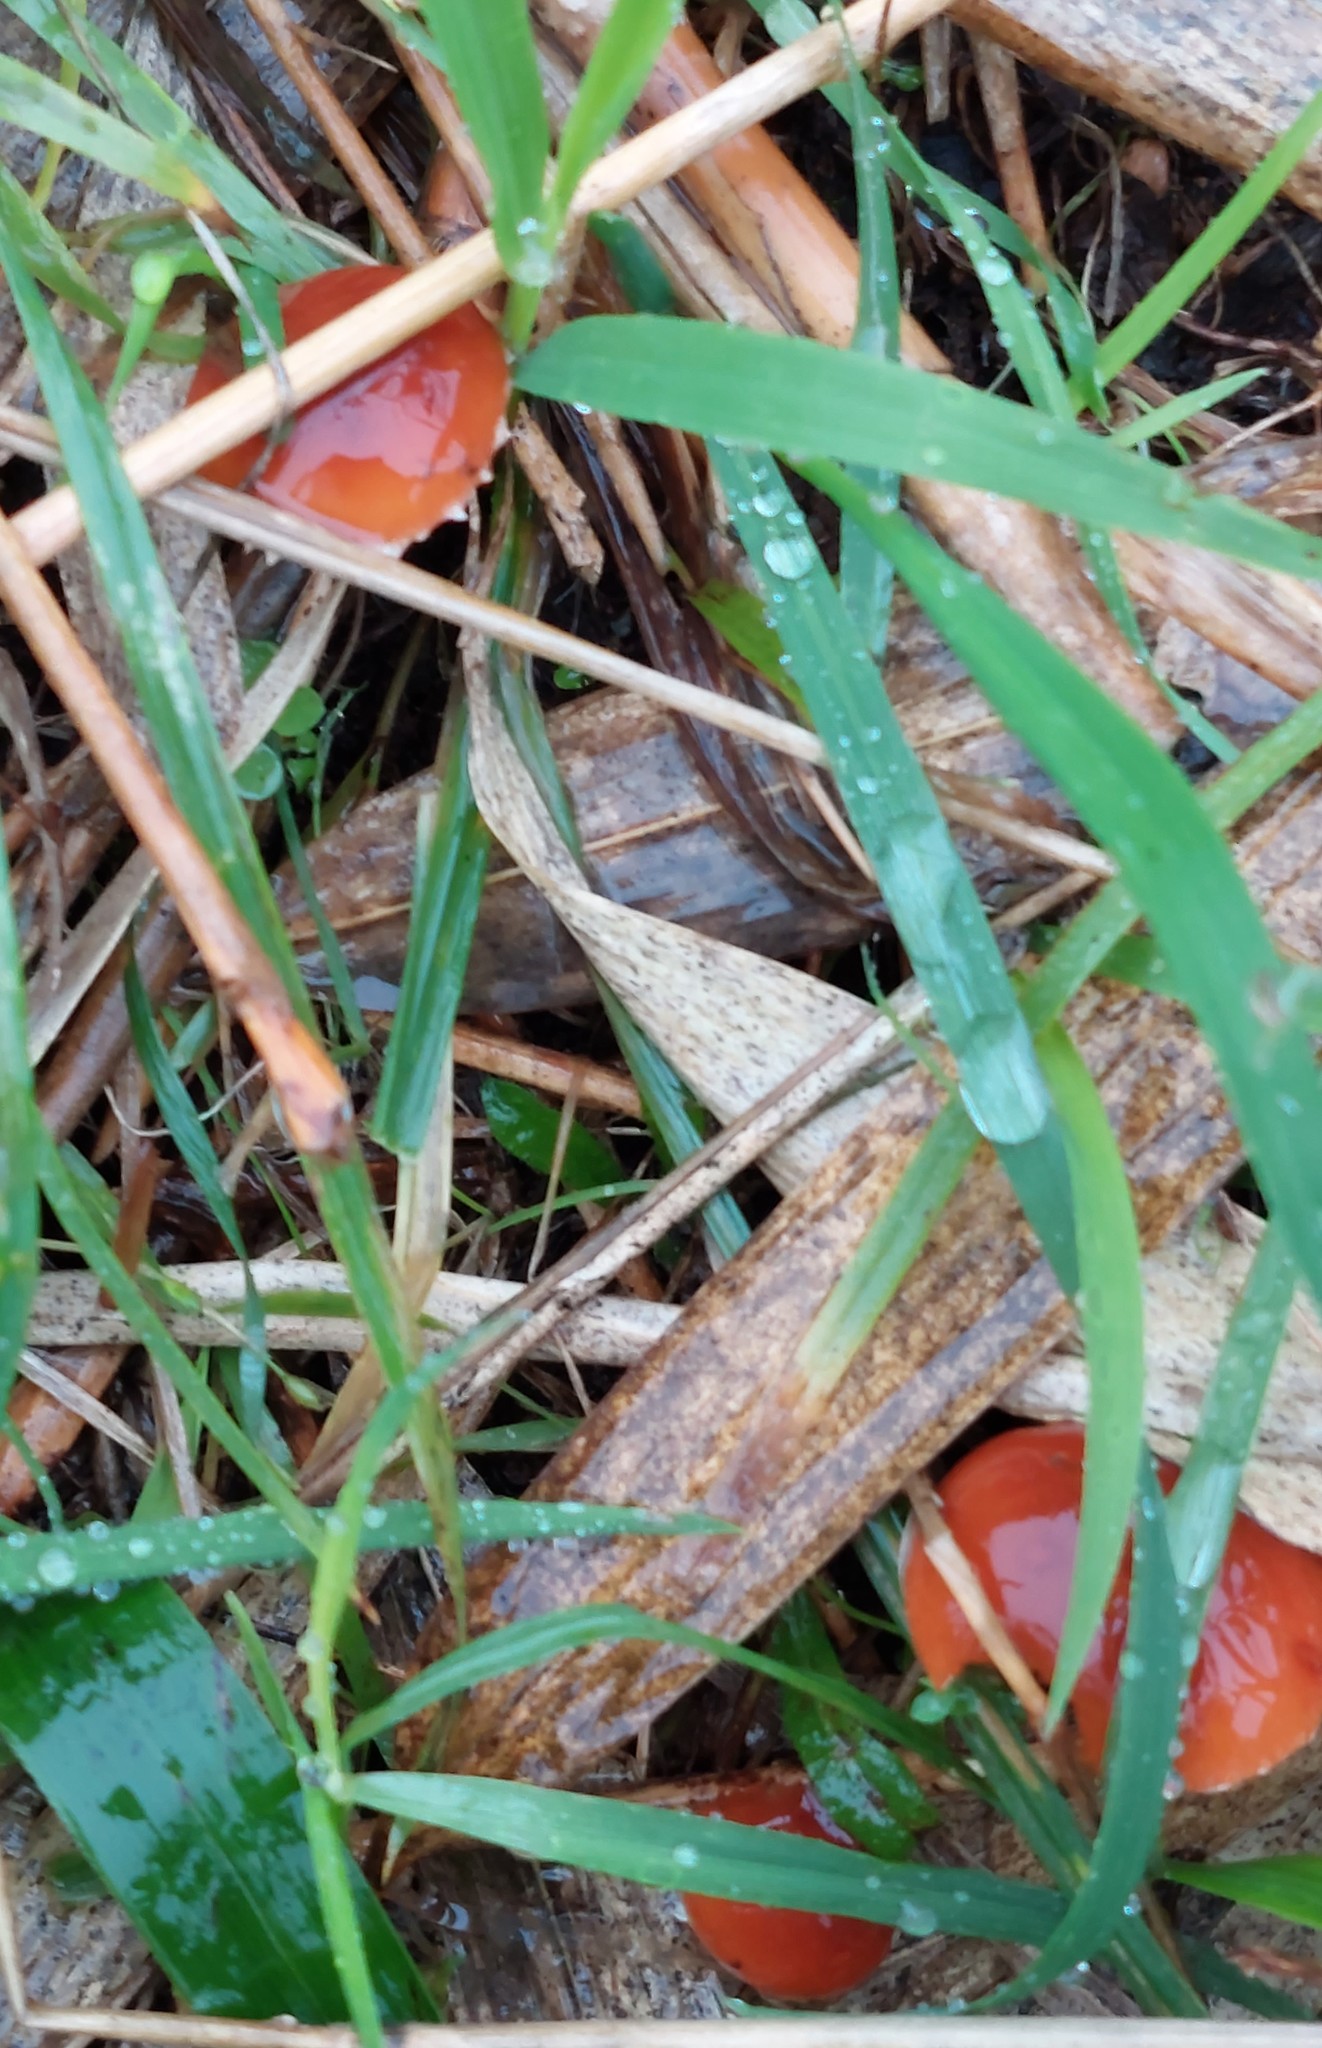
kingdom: Fungi
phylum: Basidiomycota
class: Agaricomycetes
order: Agaricales
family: Strophariaceae
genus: Leratiomyces
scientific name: Leratiomyces ceres
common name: Redlead roundhead
